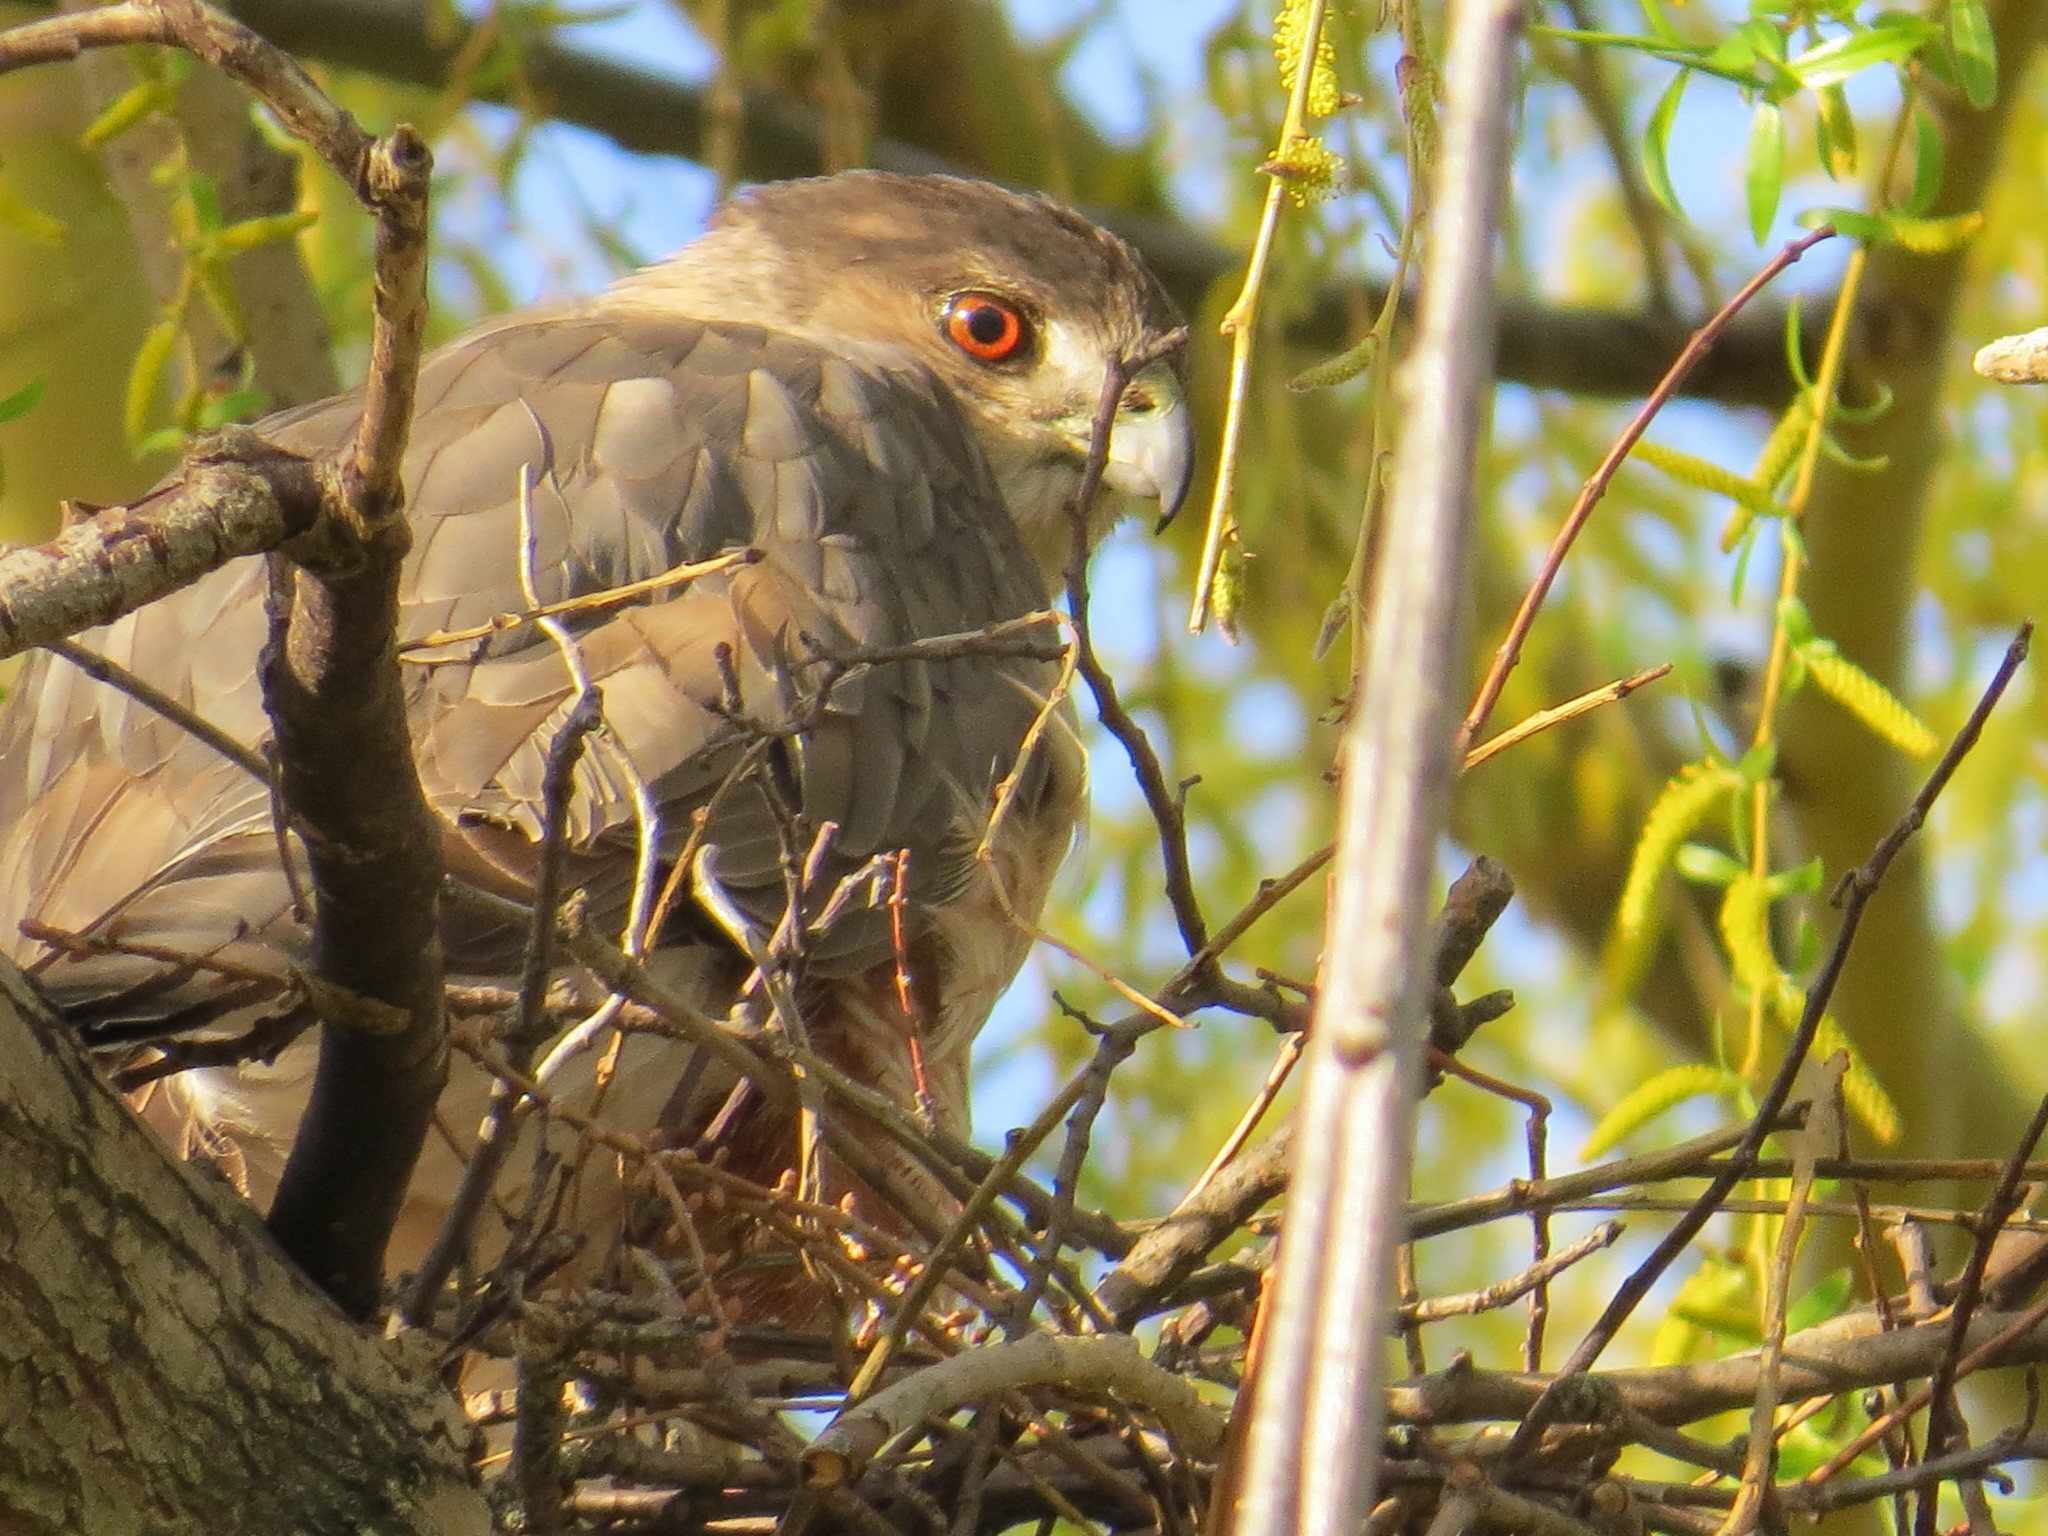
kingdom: Animalia
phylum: Chordata
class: Aves
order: Accipitriformes
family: Accipitridae
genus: Accipiter
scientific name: Accipiter cooperii
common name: Cooper's hawk
